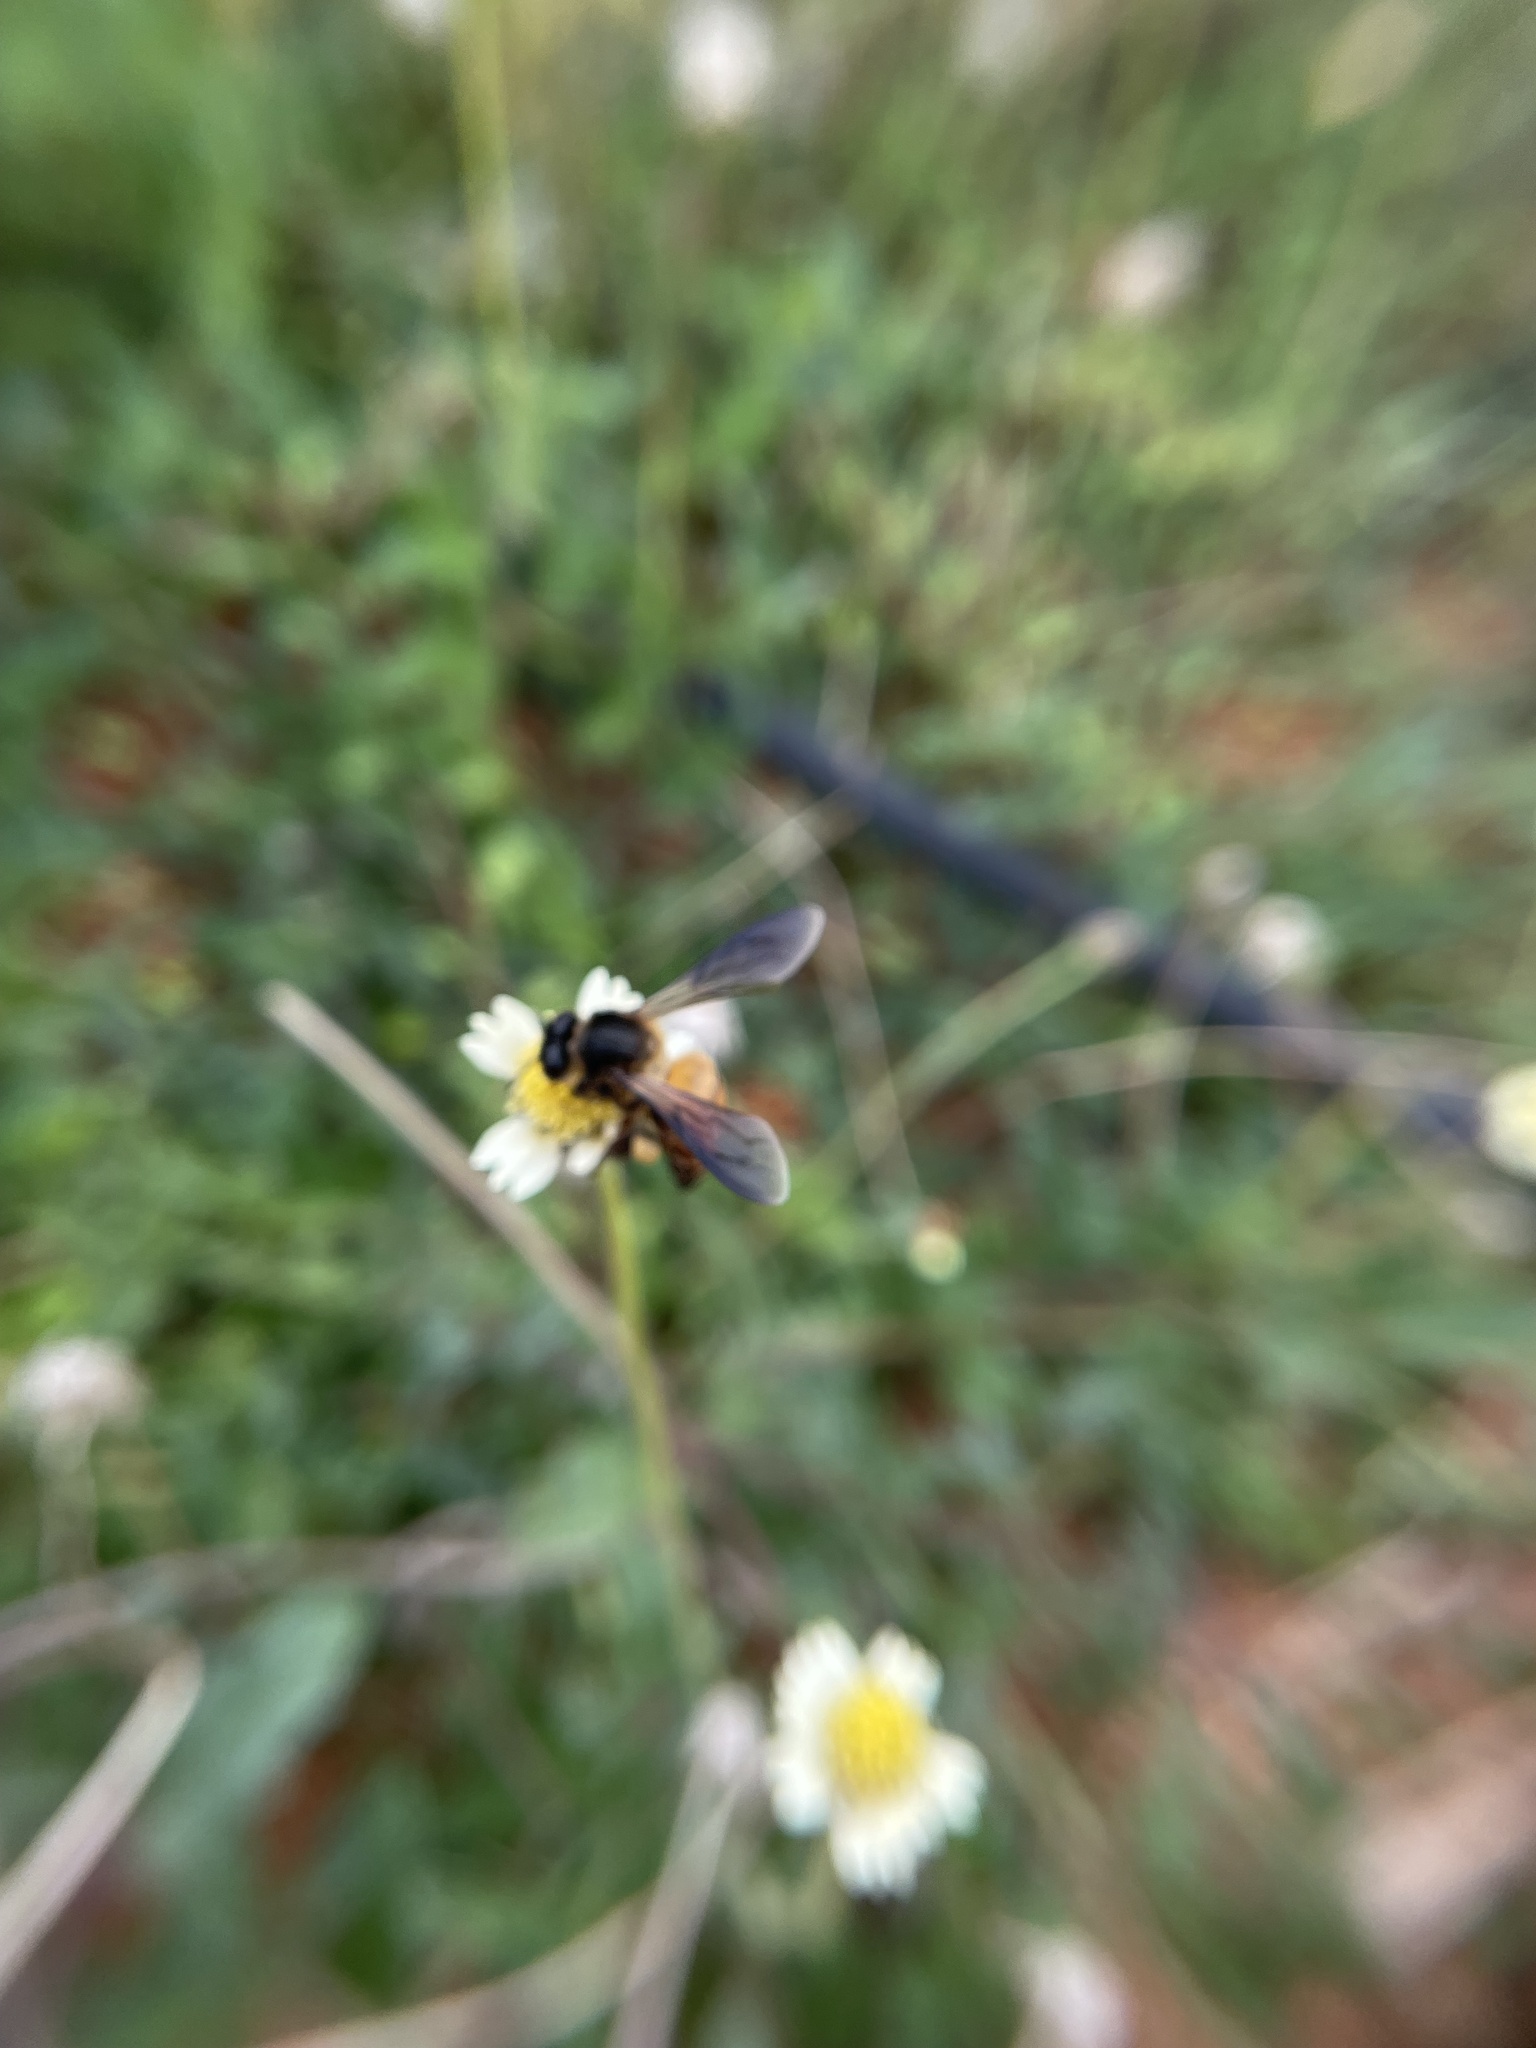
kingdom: Animalia
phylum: Arthropoda
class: Insecta
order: Hymenoptera
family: Apidae
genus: Apis
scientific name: Apis dorsata
